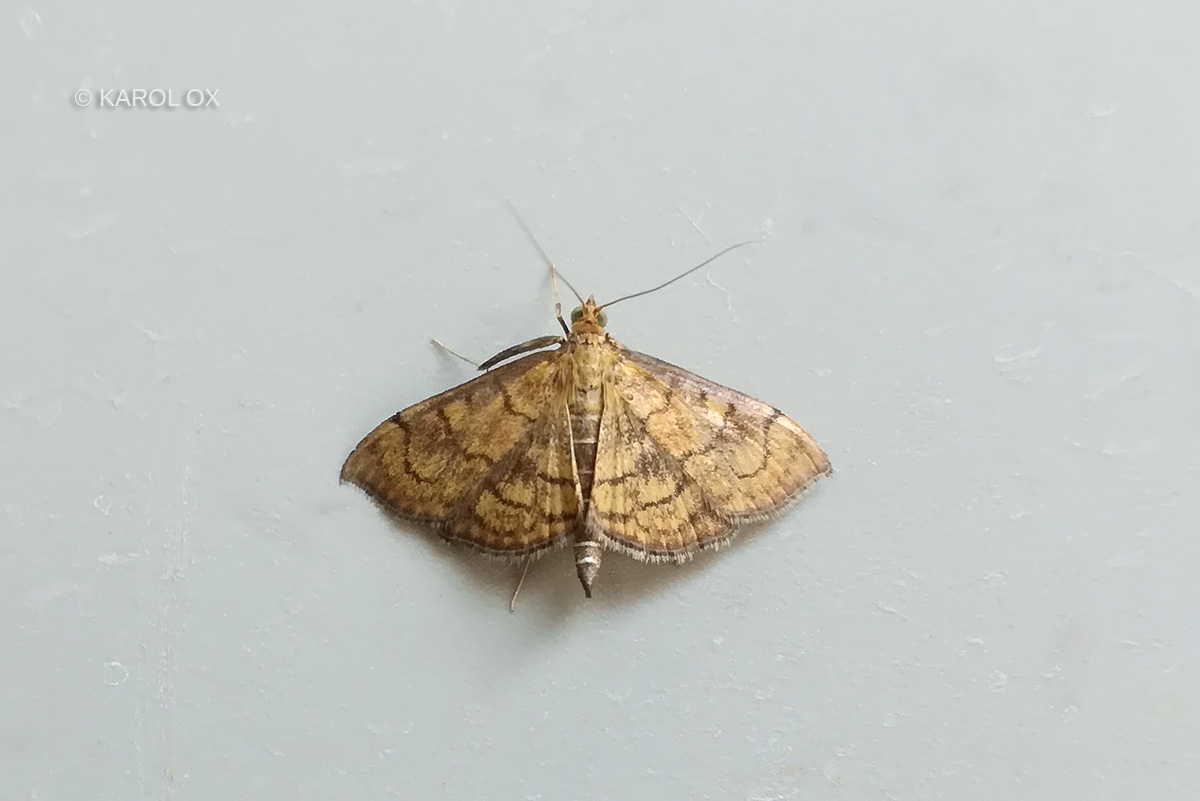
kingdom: Animalia
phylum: Arthropoda
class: Insecta
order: Lepidoptera
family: Crambidae
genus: Anania
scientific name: Anania verbascalis
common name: Golden pearl
